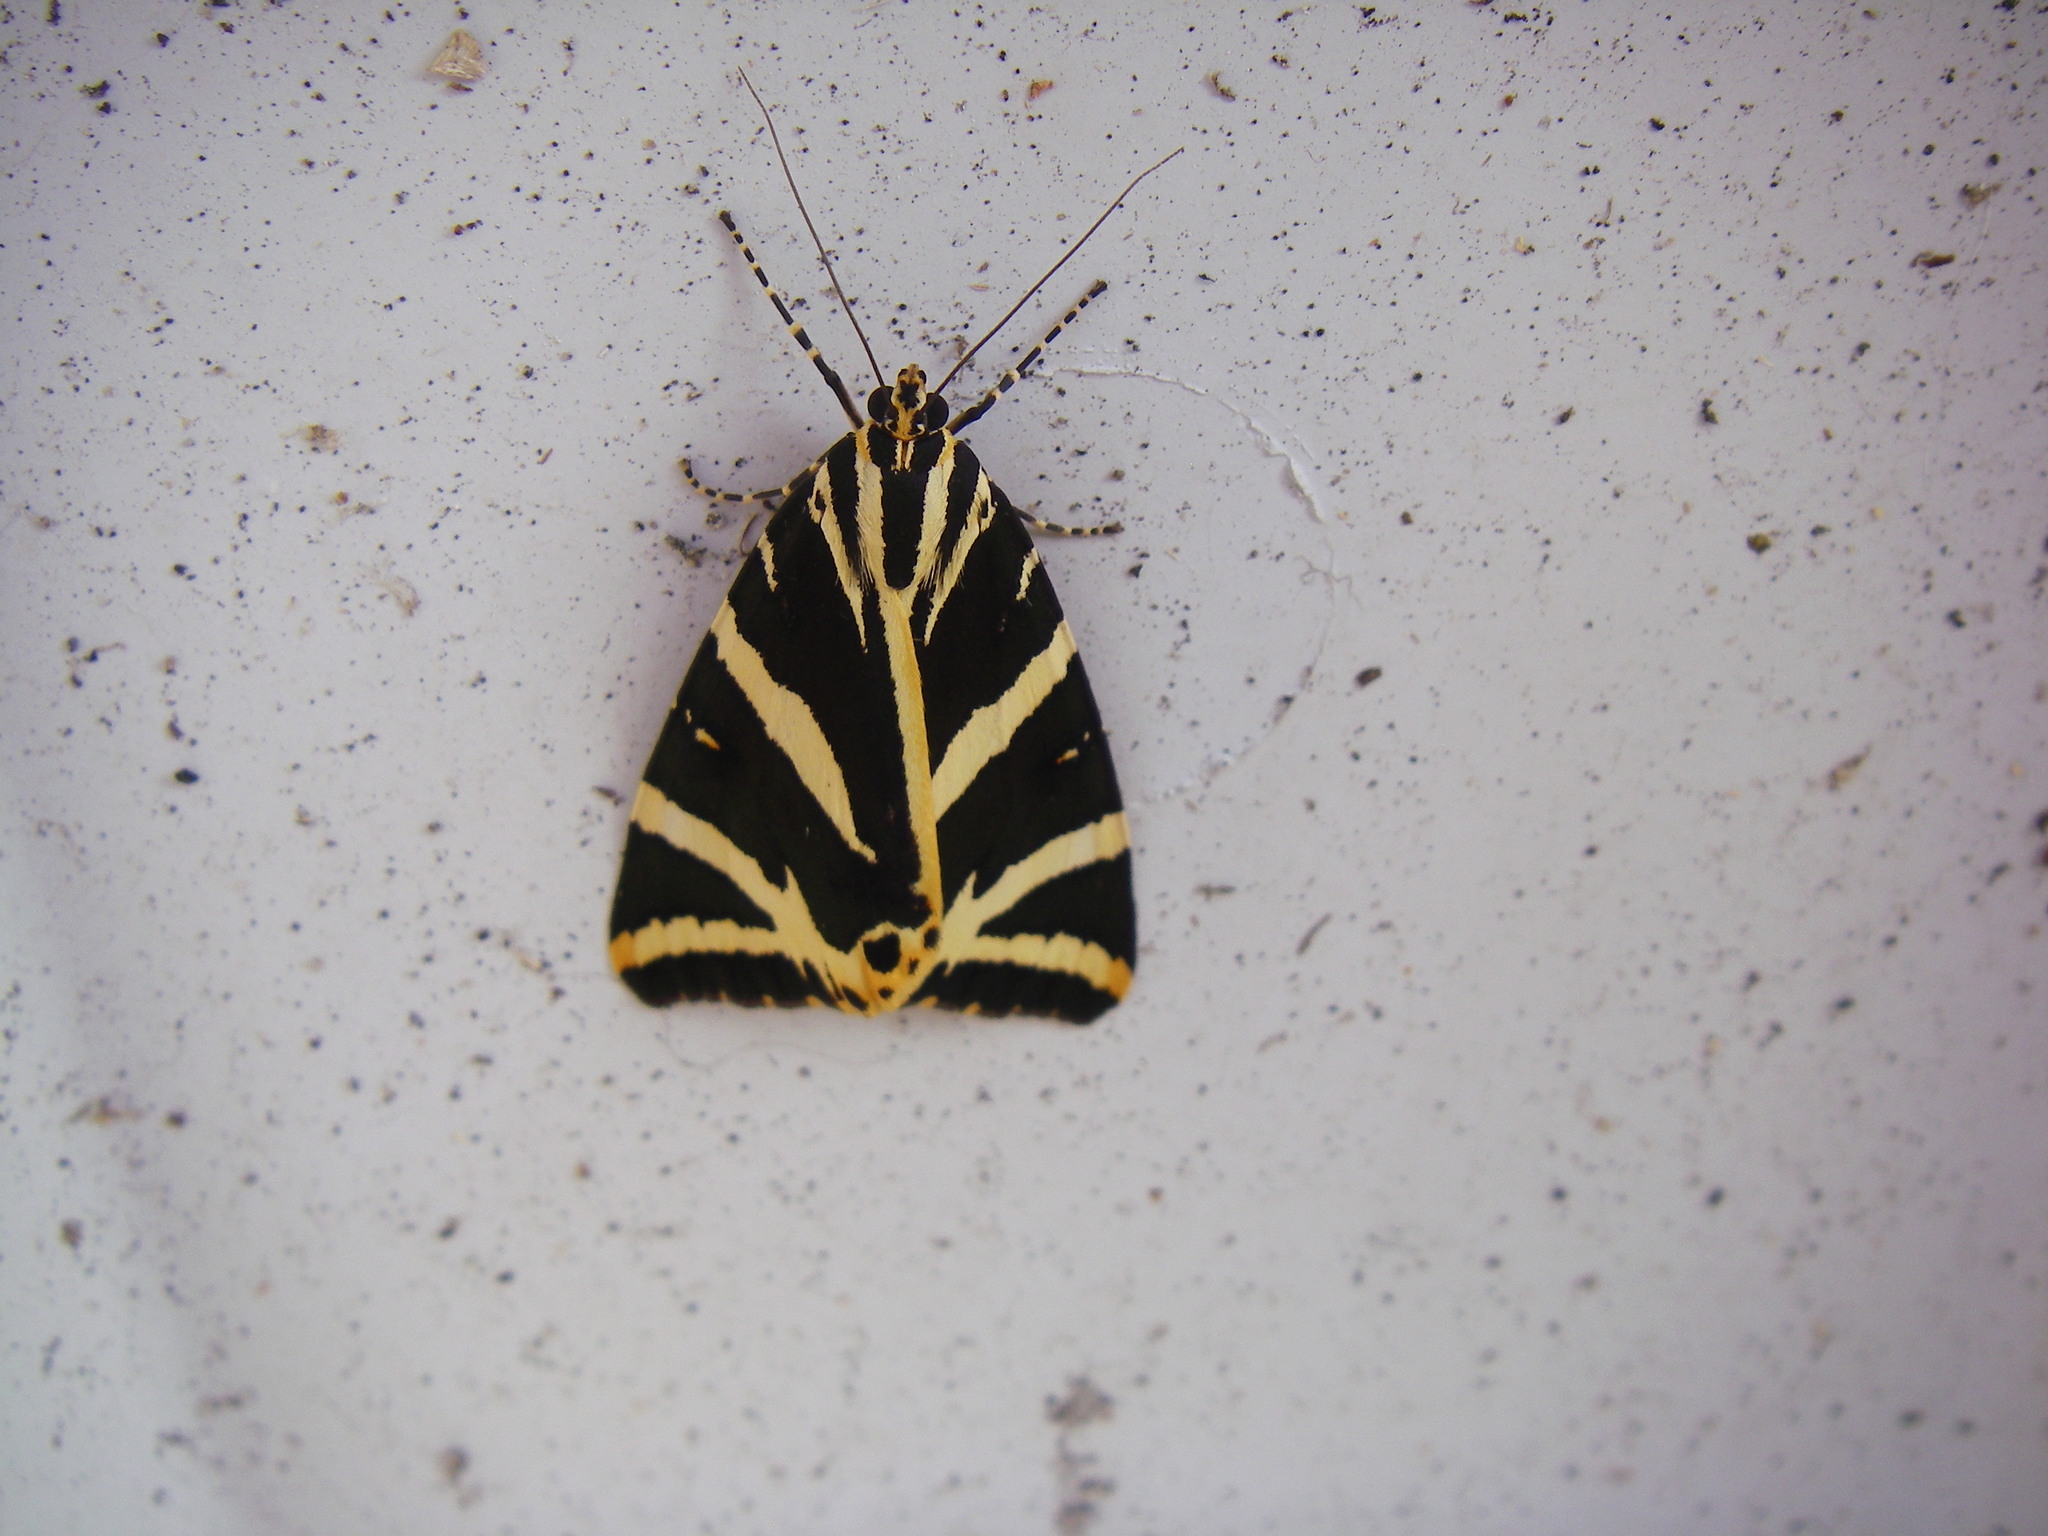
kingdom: Animalia
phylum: Arthropoda
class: Insecta
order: Lepidoptera
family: Erebidae
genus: Euplagia
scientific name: Euplagia quadripunctaria
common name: Jersey tiger
